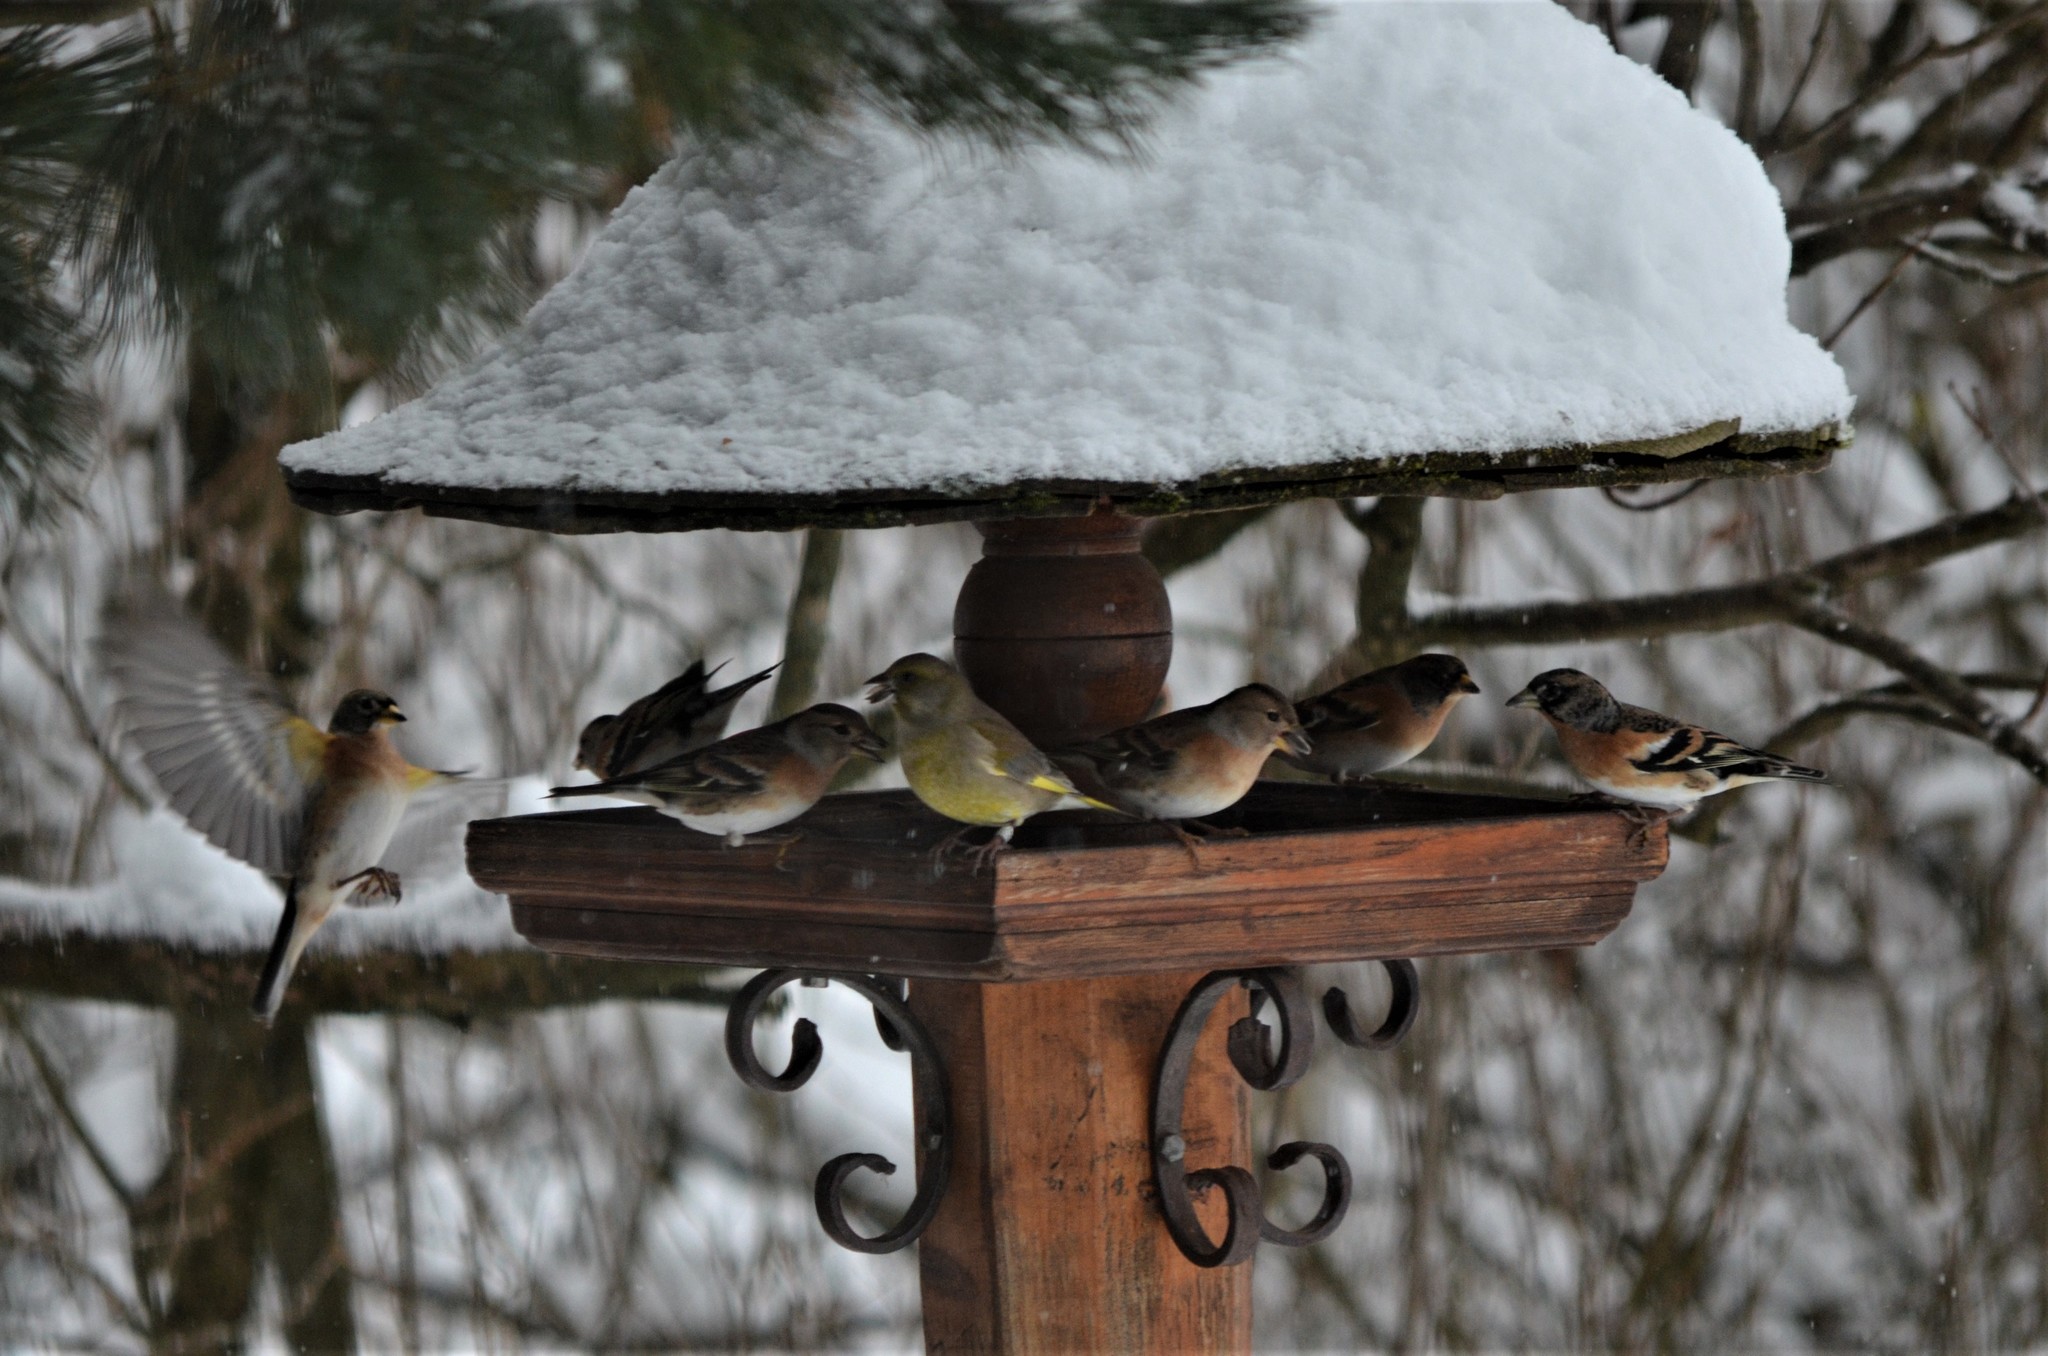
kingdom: Animalia
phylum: Chordata
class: Aves
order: Passeriformes
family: Fringillidae
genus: Fringilla
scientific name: Fringilla montifringilla
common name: Brambling
